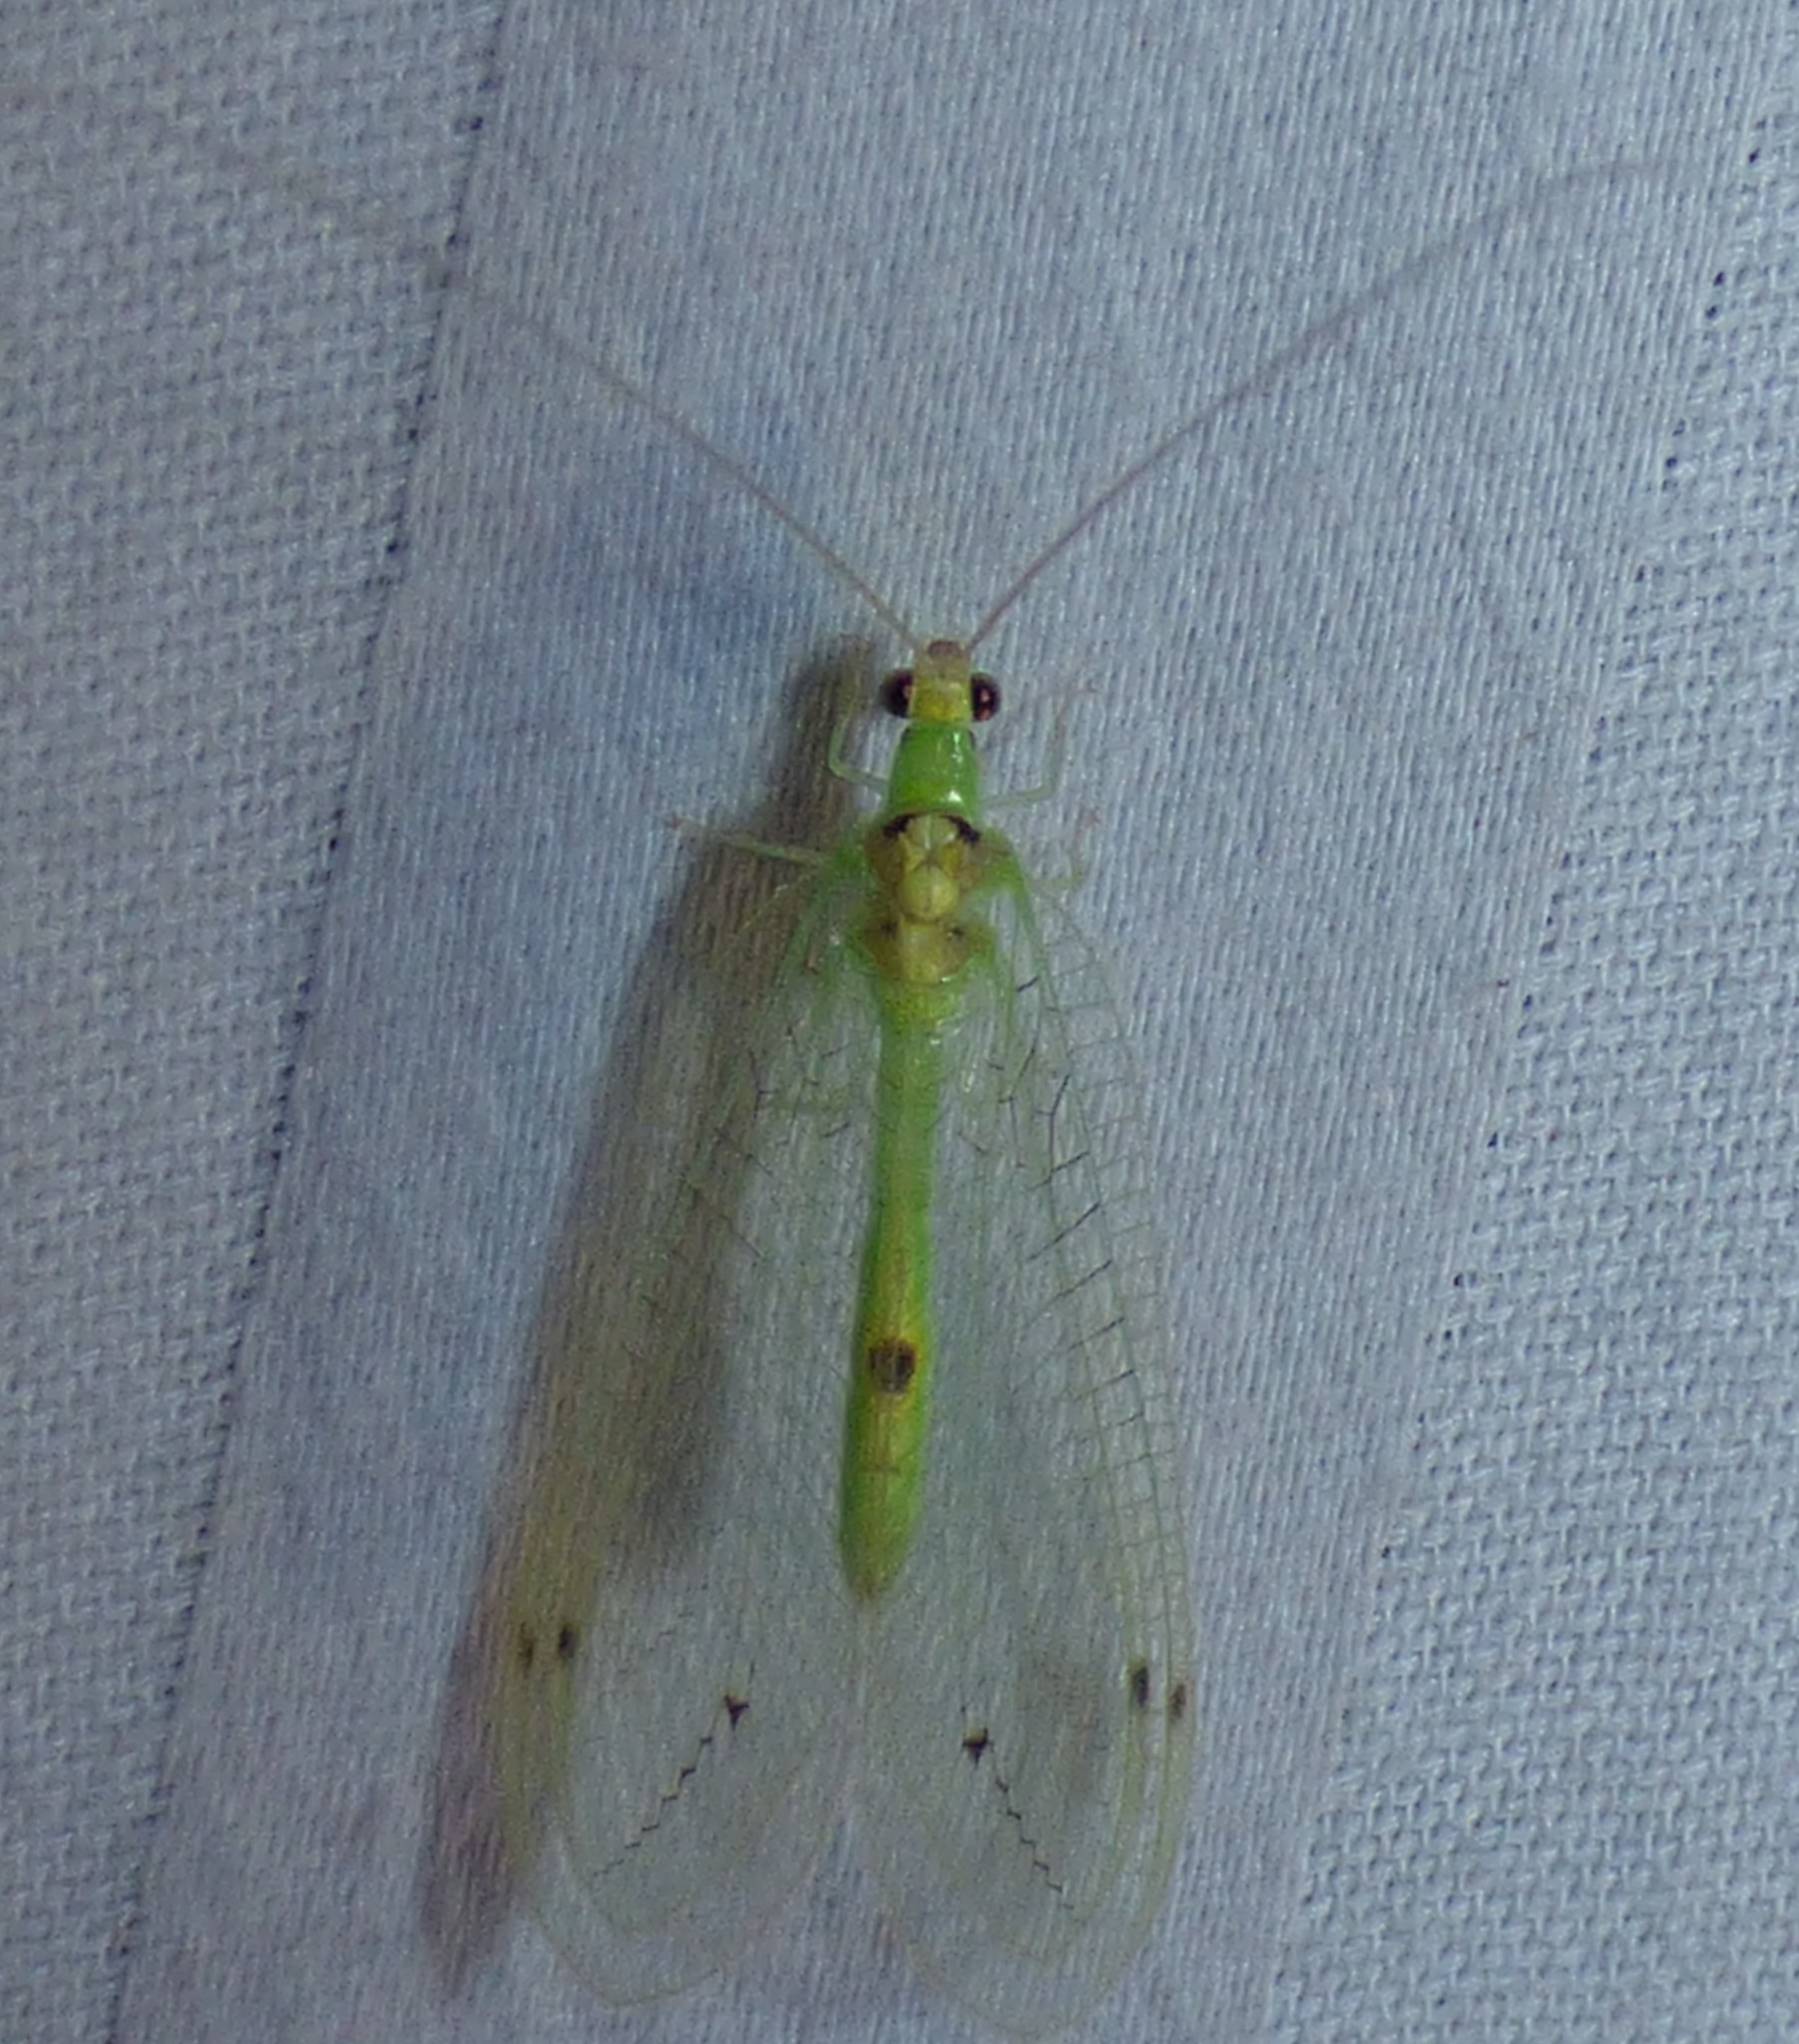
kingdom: Animalia
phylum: Arthropoda
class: Insecta
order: Neuroptera
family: Chrysopidae
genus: Leucochrysa
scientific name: Leucochrysa insularis
